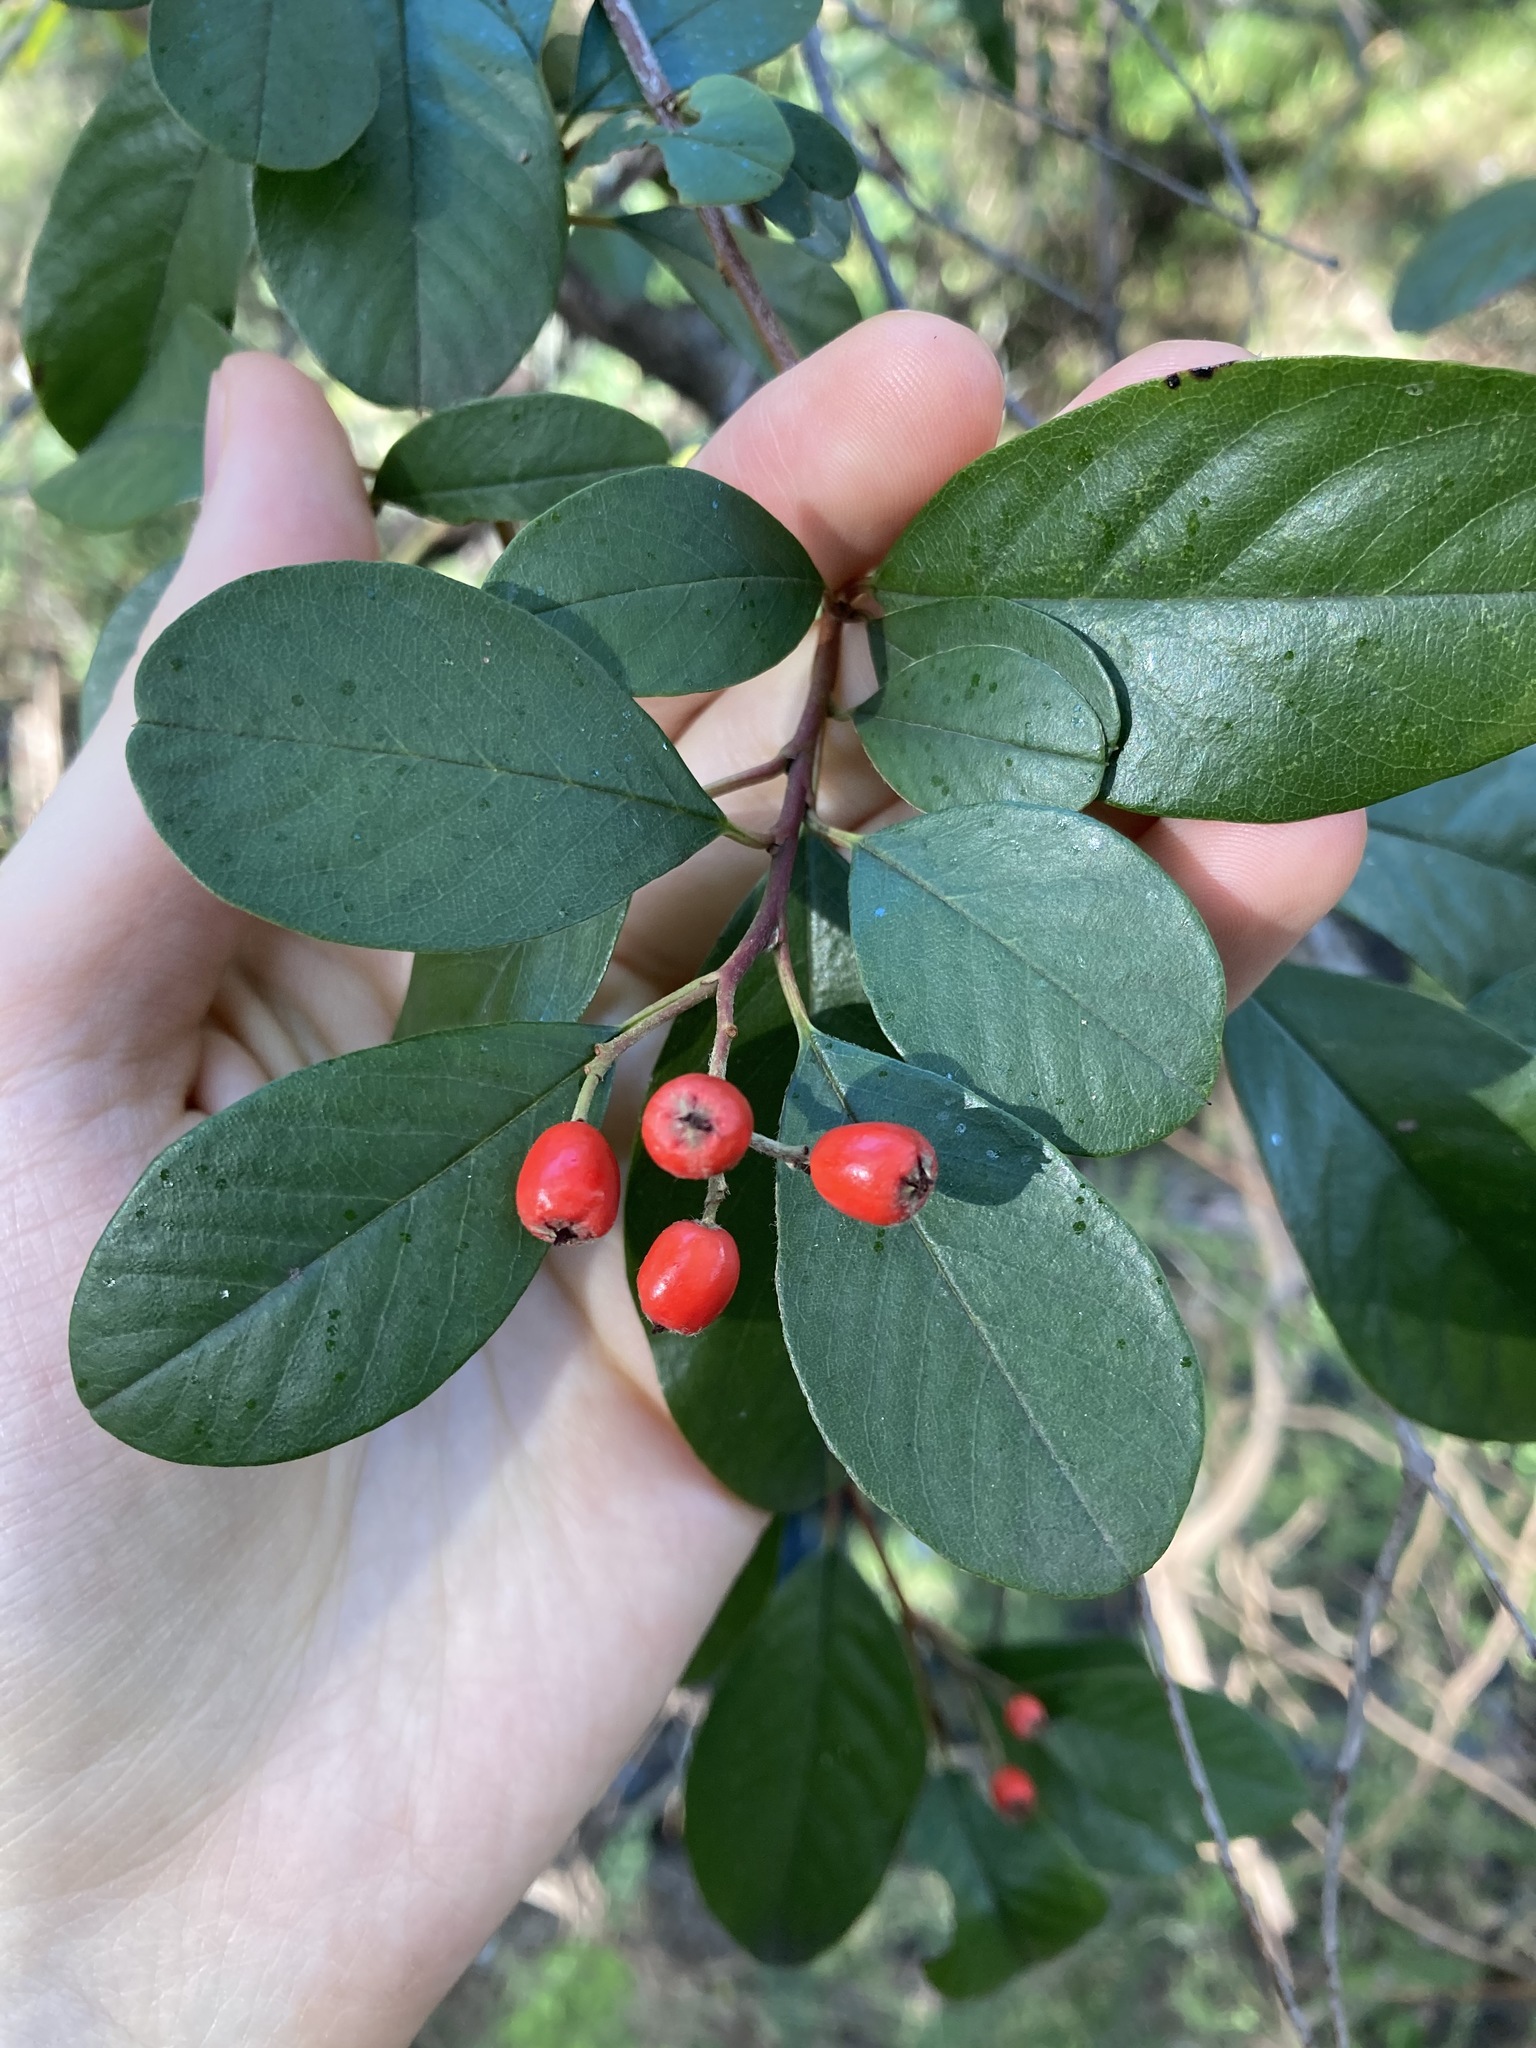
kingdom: Plantae
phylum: Tracheophyta
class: Magnoliopsida
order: Rosales
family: Rosaceae
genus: Cotoneaster
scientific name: Cotoneaster glaucophyllus
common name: Glaucous cotoneaster
